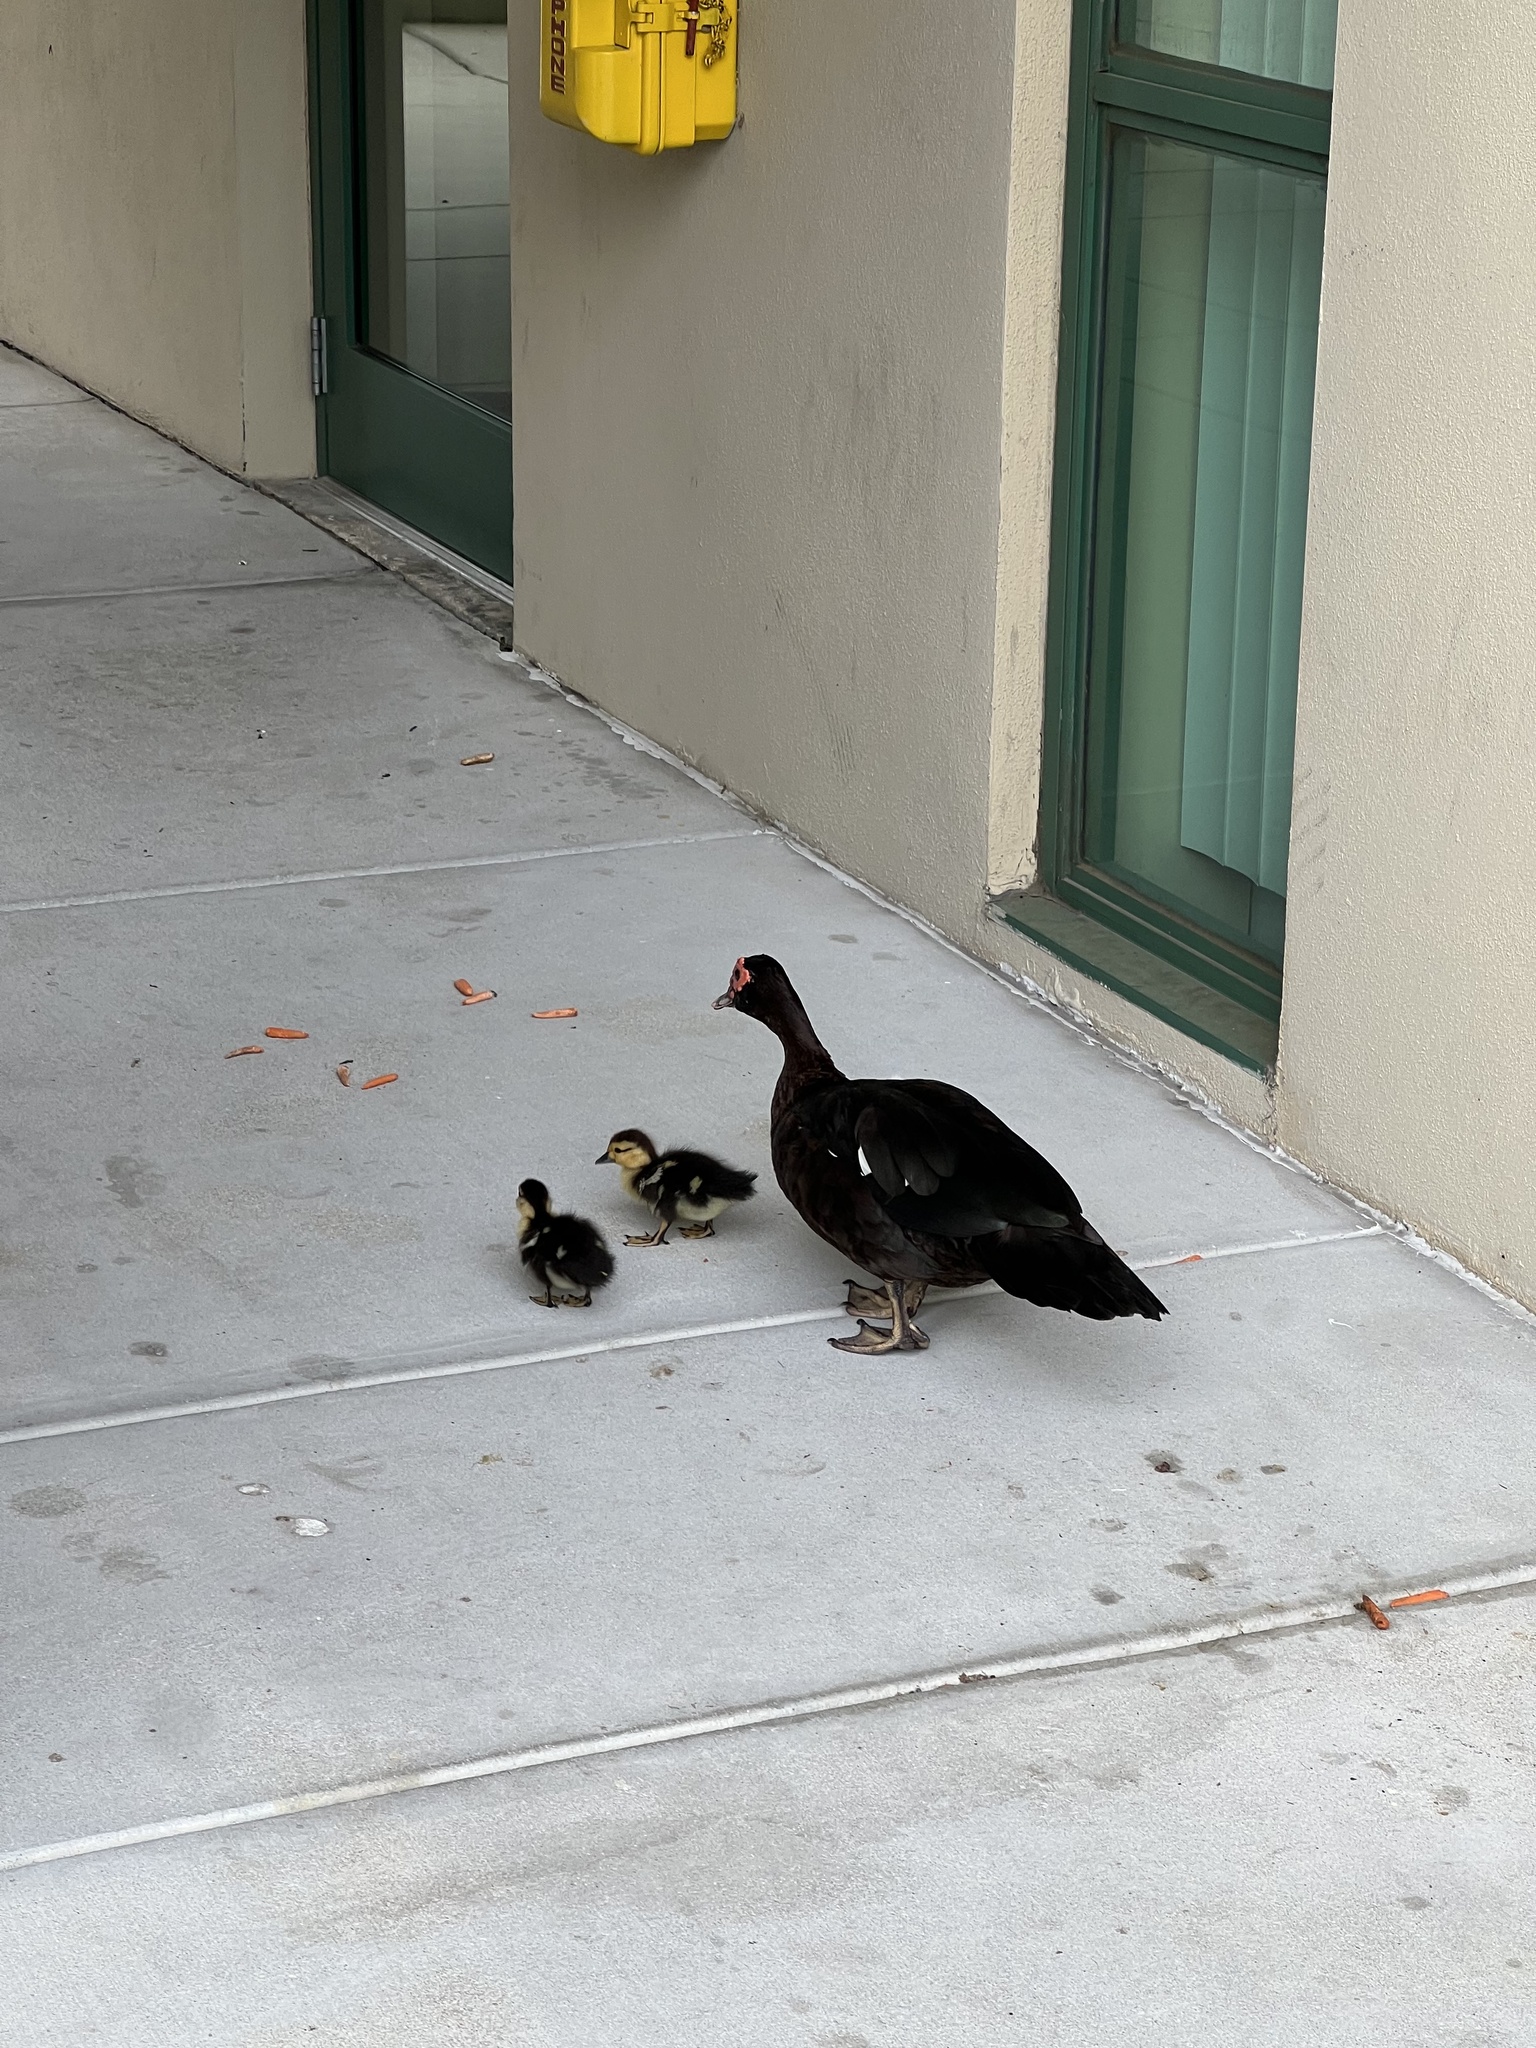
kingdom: Animalia
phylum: Chordata
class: Aves
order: Anseriformes
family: Anatidae
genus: Cairina
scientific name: Cairina moschata
